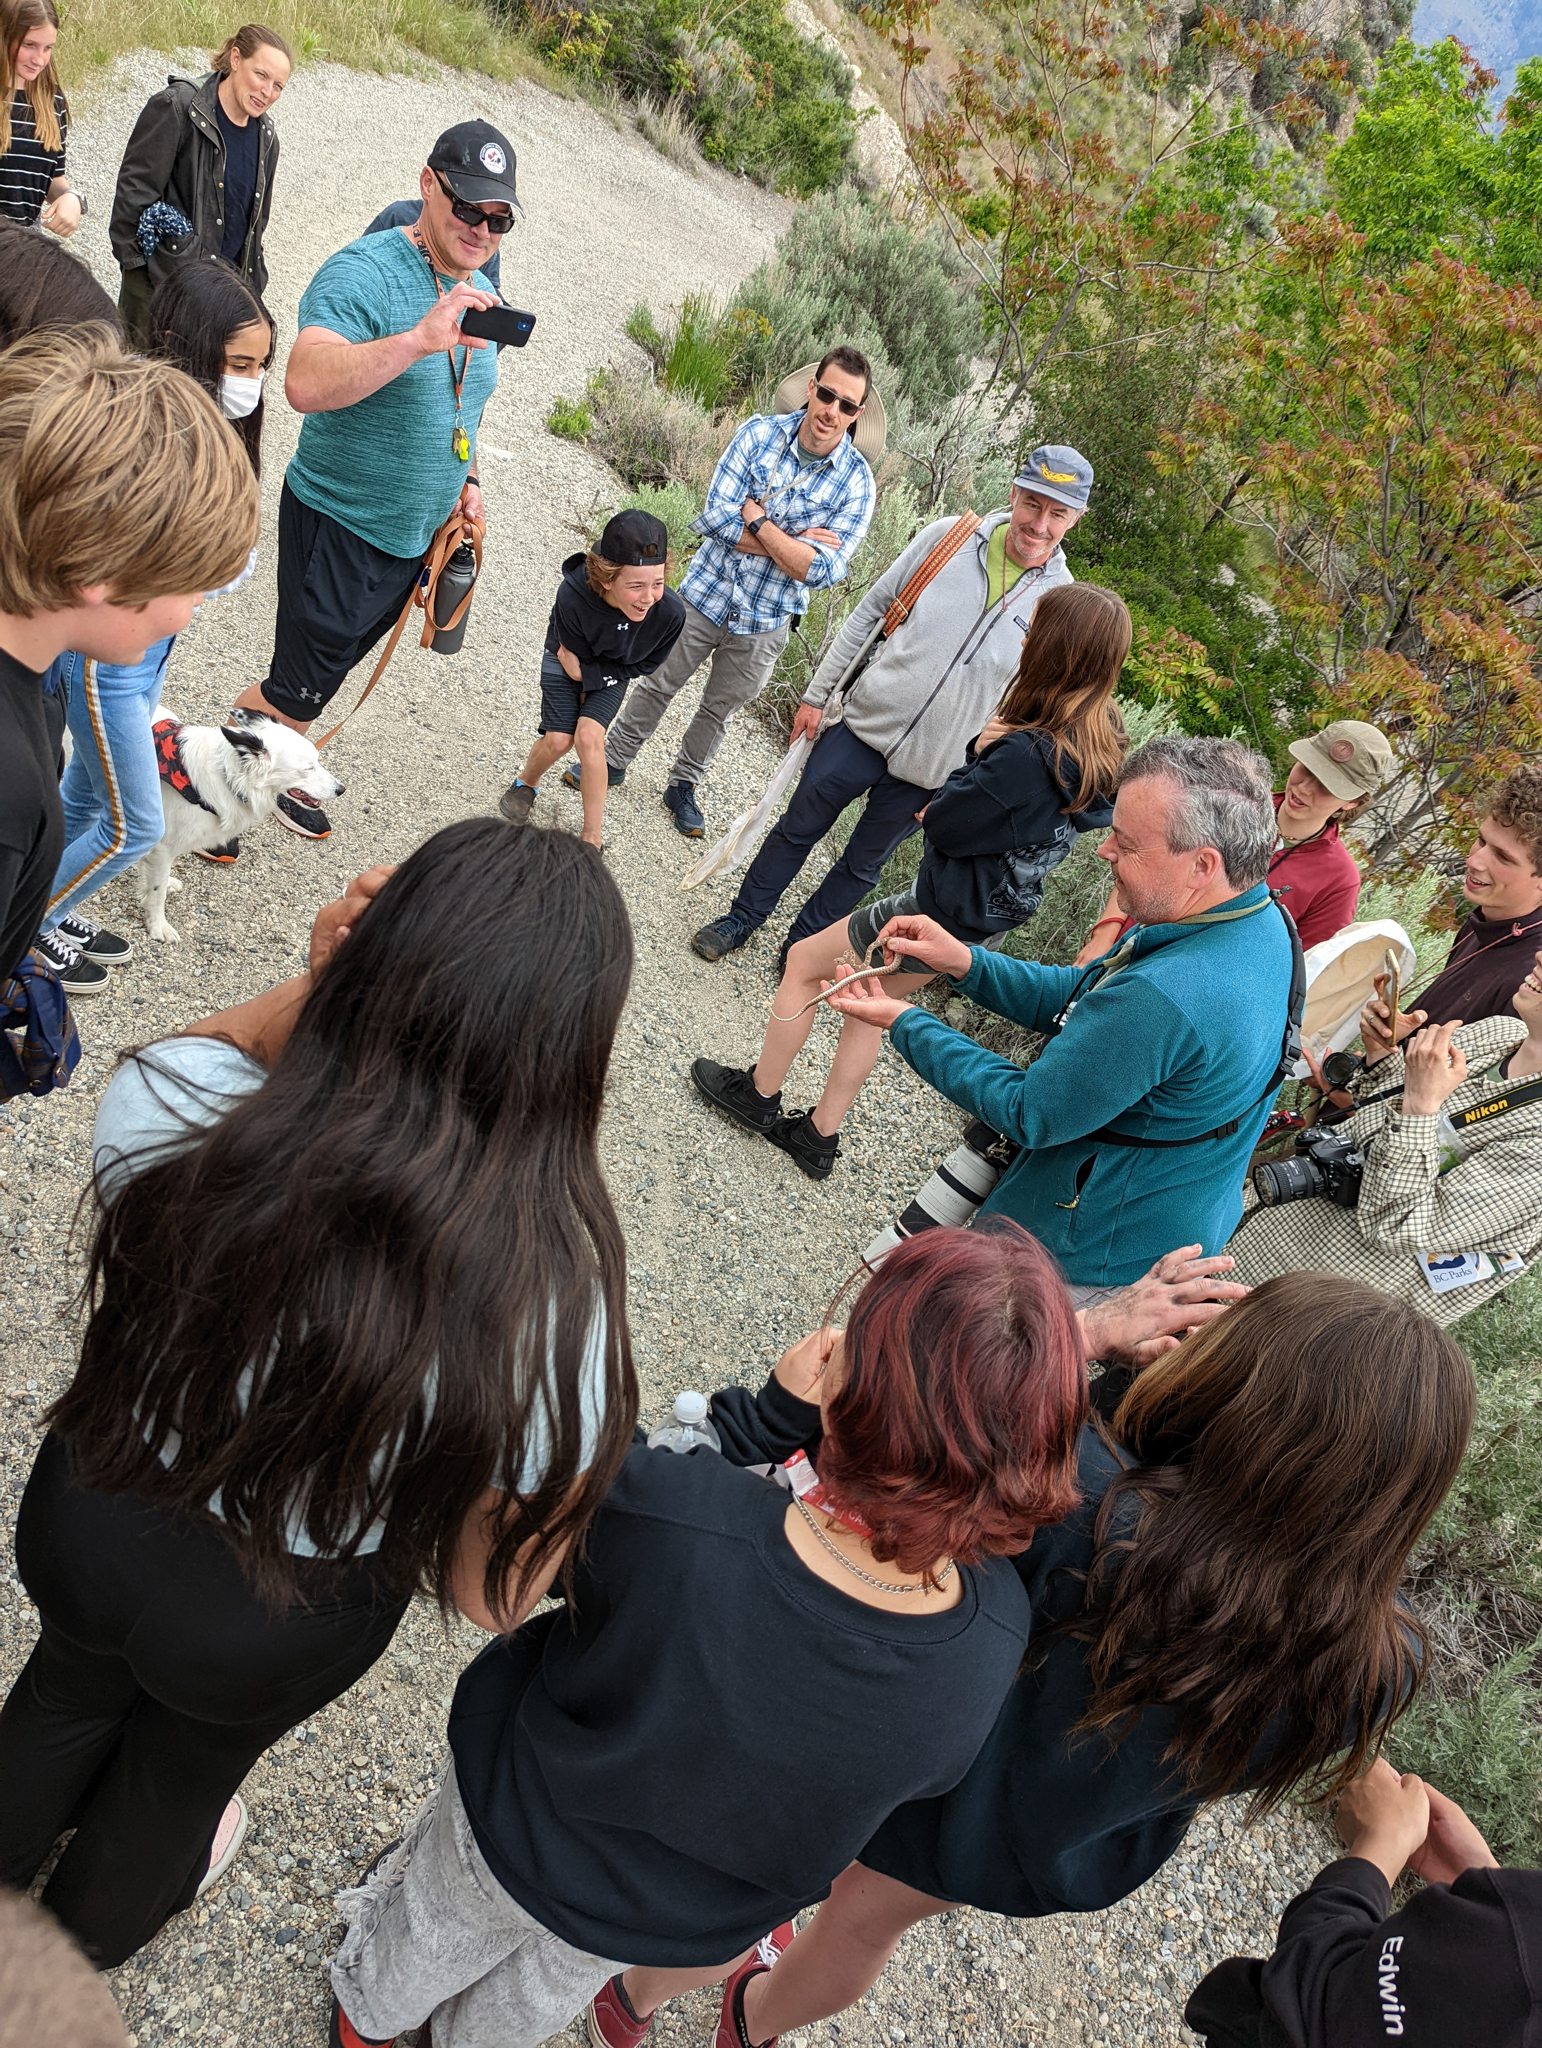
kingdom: Animalia
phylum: Chordata
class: Squamata
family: Colubridae
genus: Pituophis
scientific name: Pituophis catenifer
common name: Gopher snake
